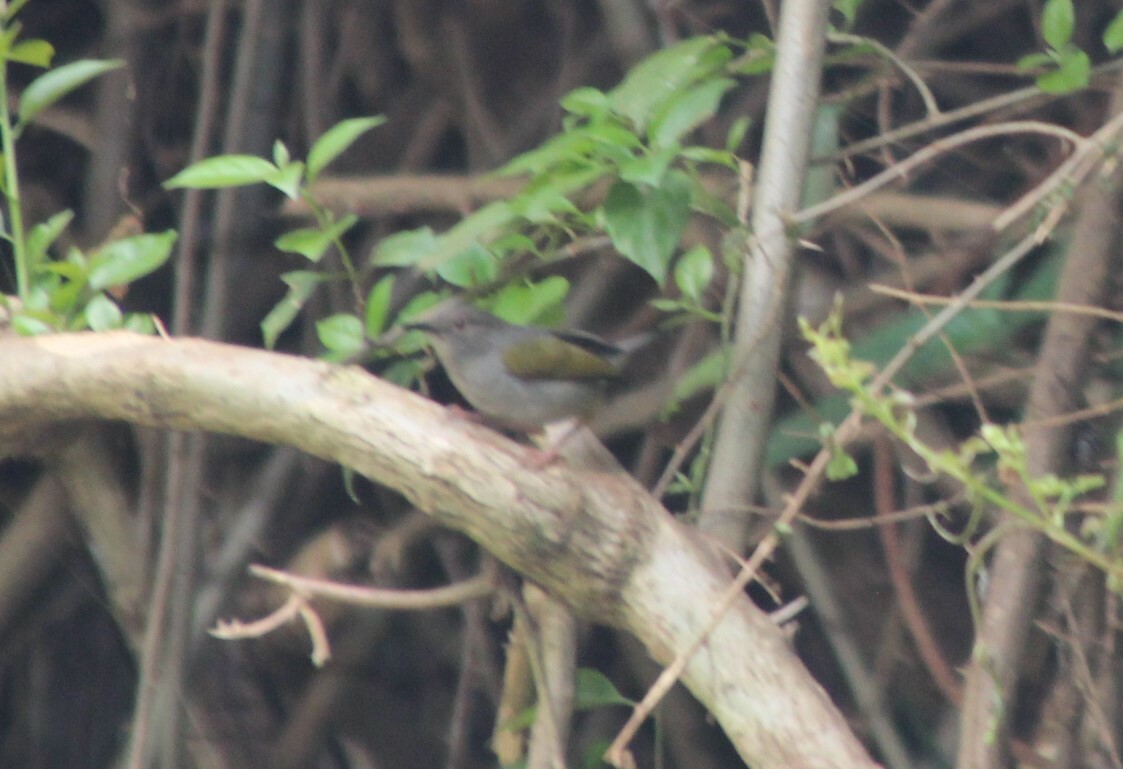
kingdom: Animalia
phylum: Chordata
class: Aves
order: Passeriformes
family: Cisticolidae
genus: Camaroptera
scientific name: Camaroptera brachyura
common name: Green-backed camaroptera
